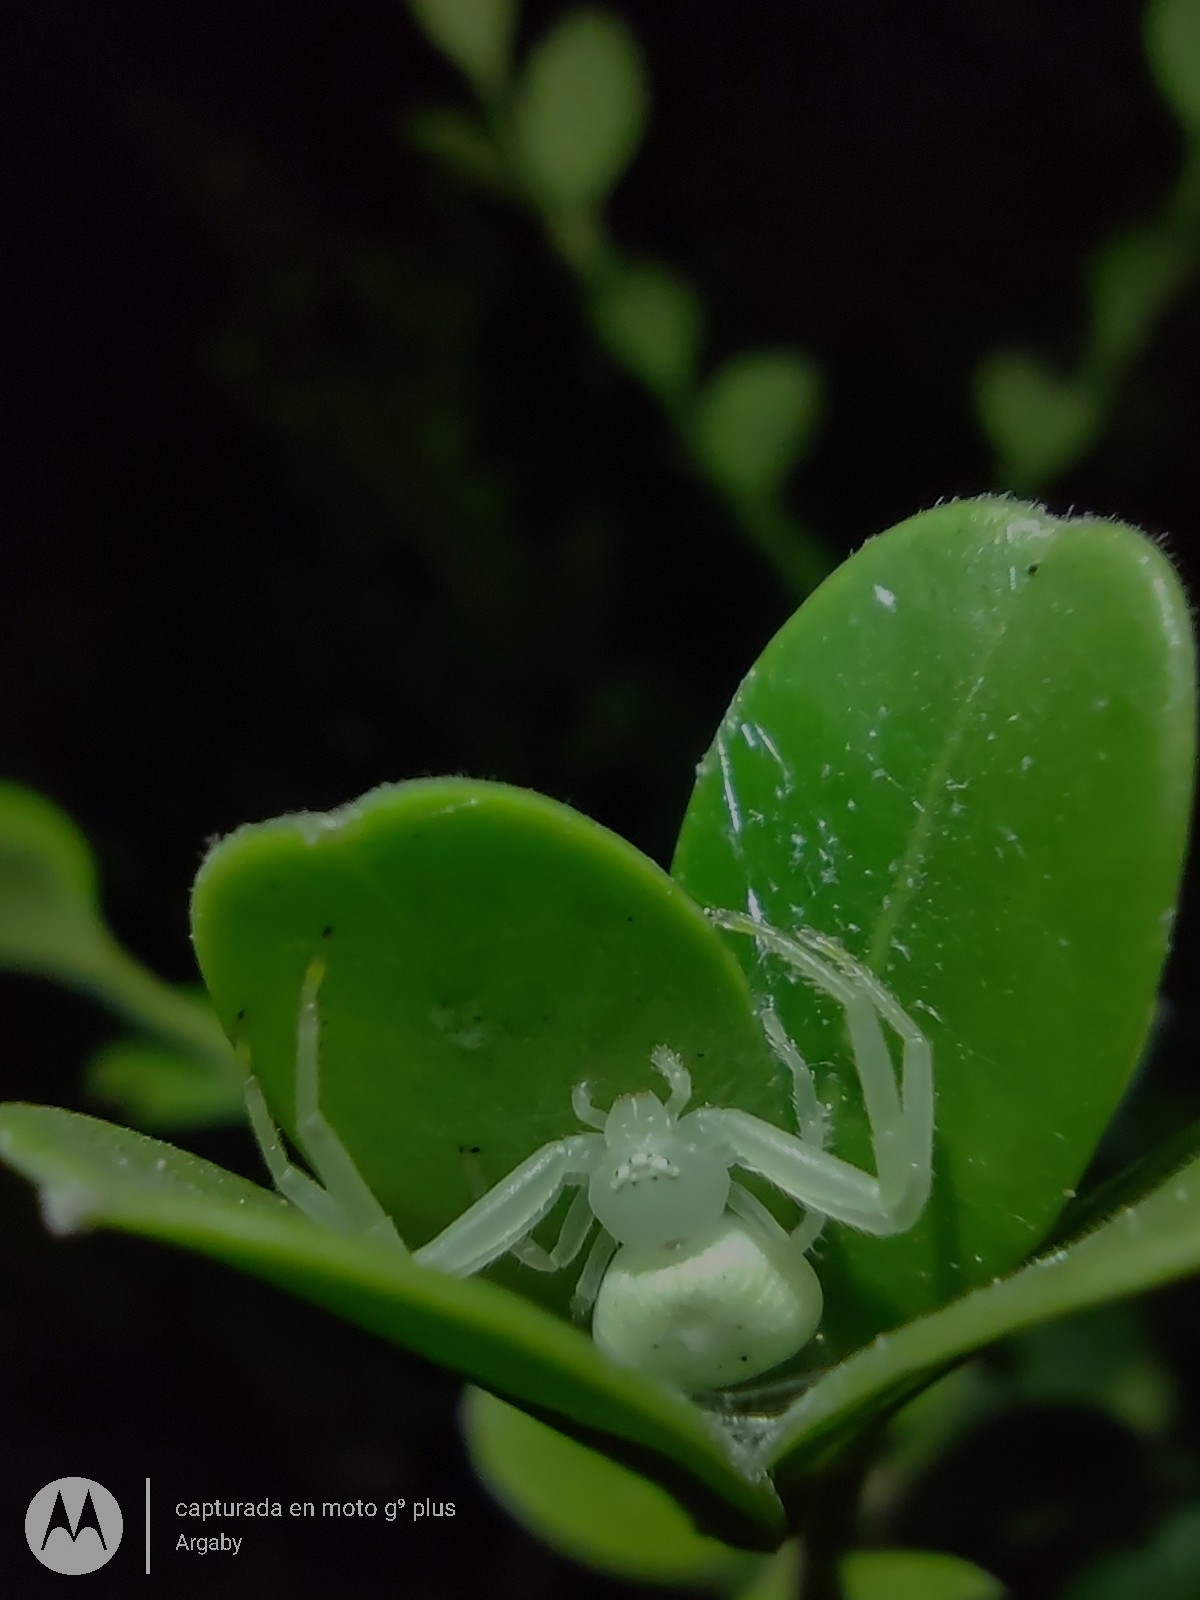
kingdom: Animalia
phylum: Arthropoda
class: Arachnida
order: Araneae
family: Thomisidae
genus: Misumenops
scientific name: Misumenops
